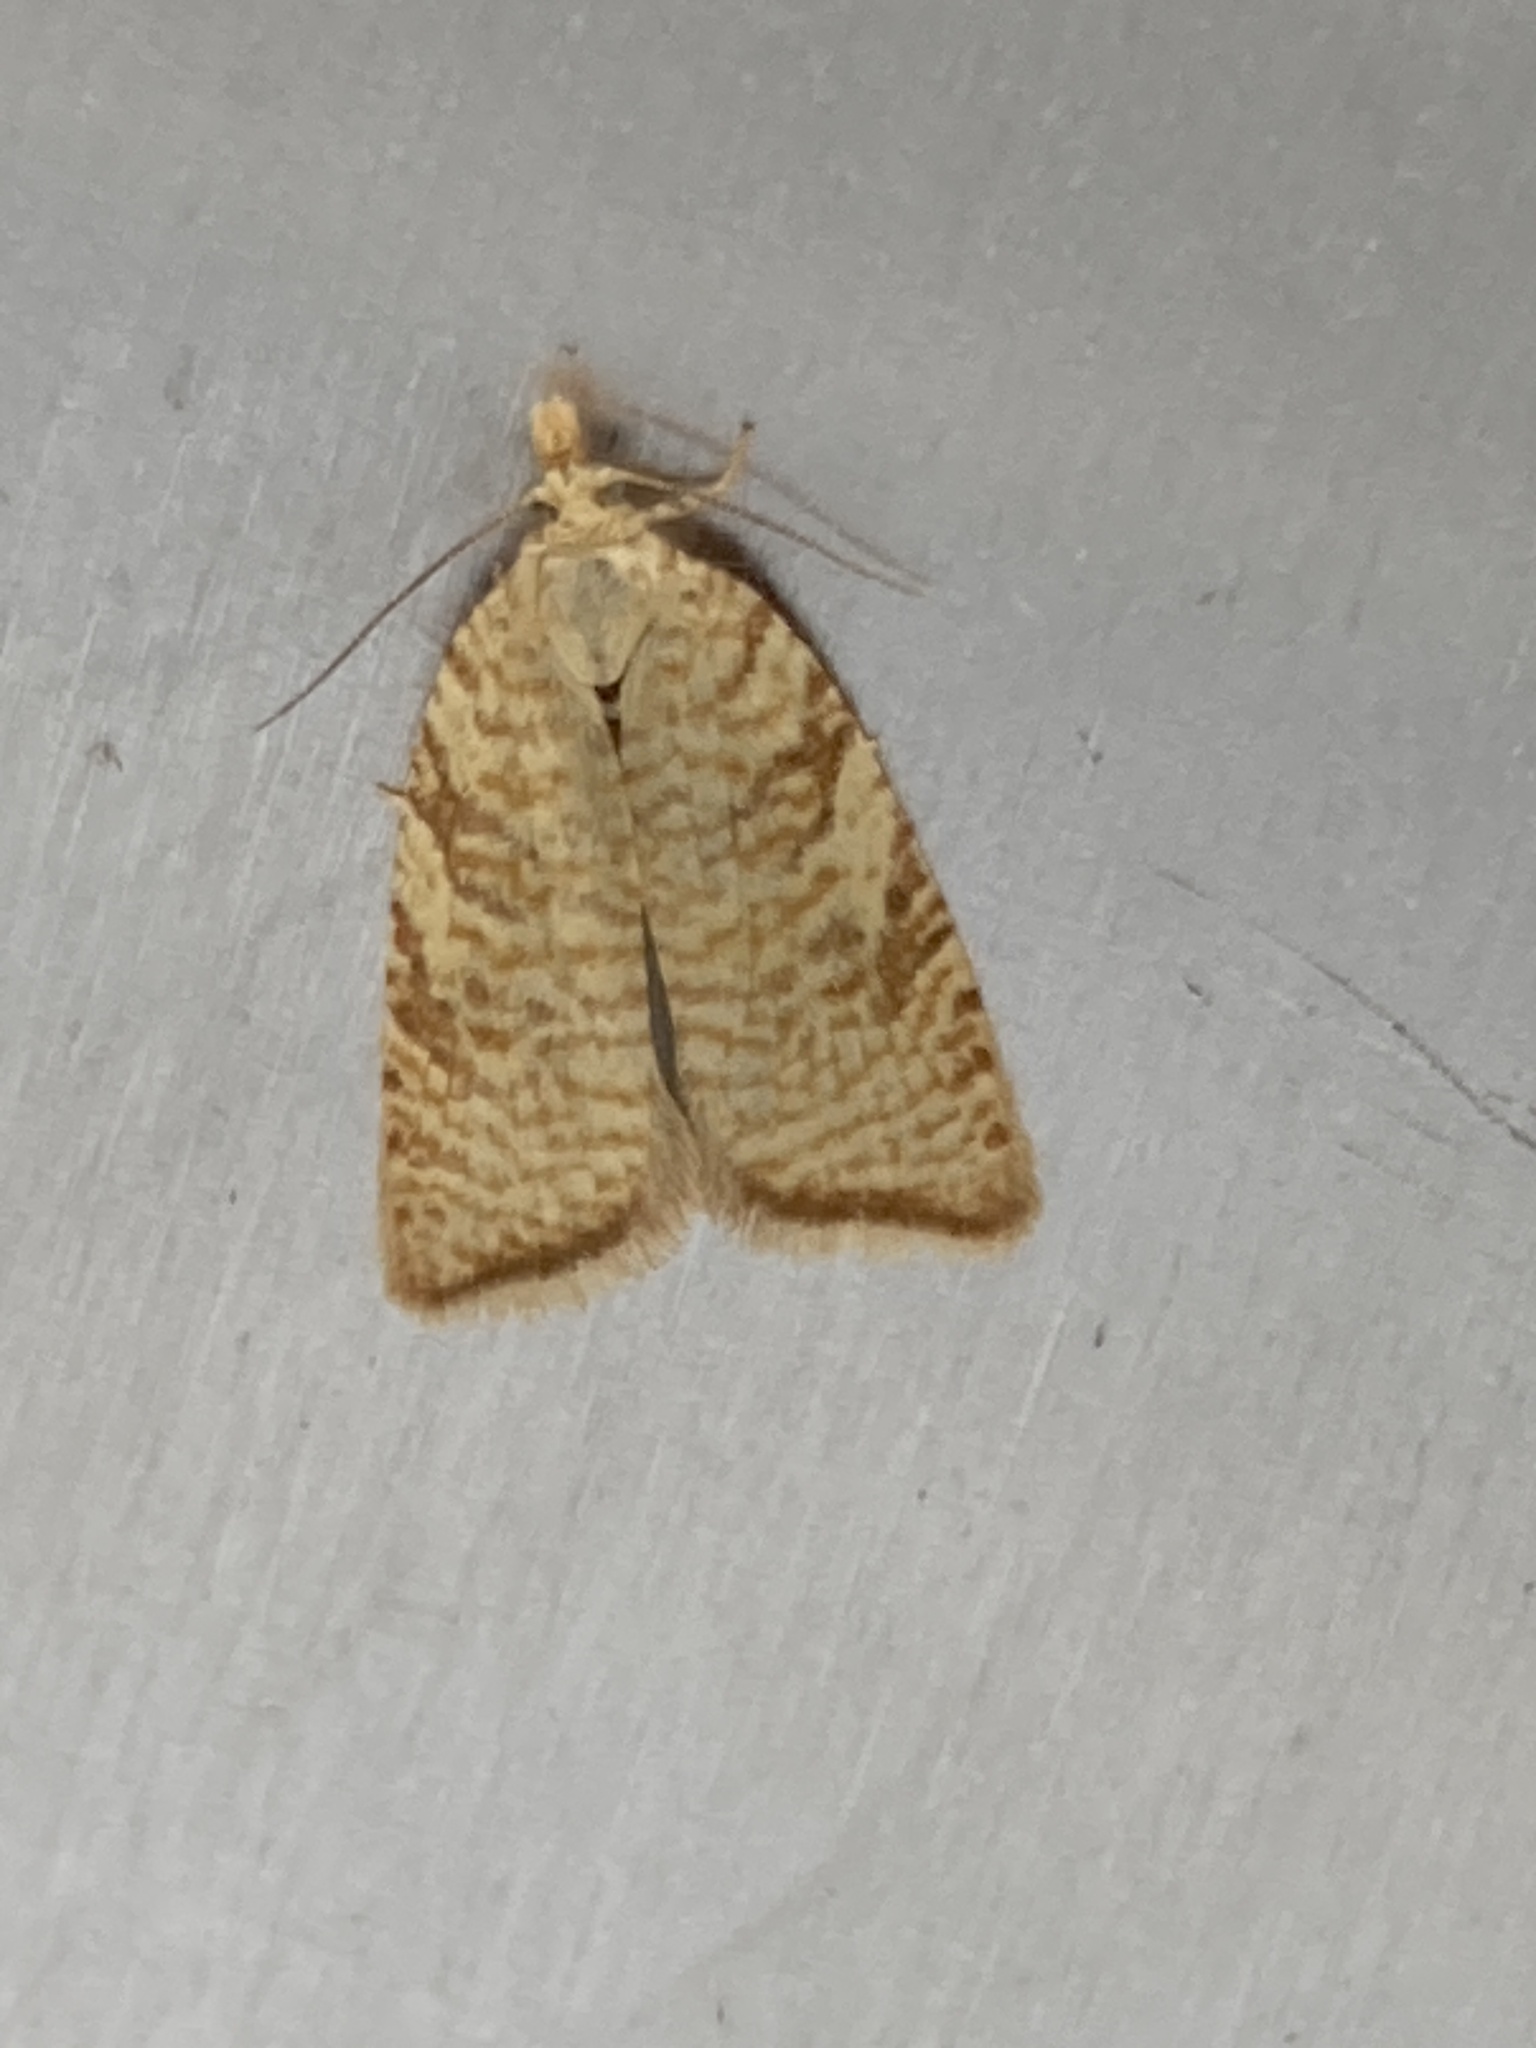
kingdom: Animalia
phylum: Arthropoda
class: Insecta
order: Lepidoptera
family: Tortricidae
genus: Aleimma
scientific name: Aleimma loeflingiana
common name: Yellow oak button
